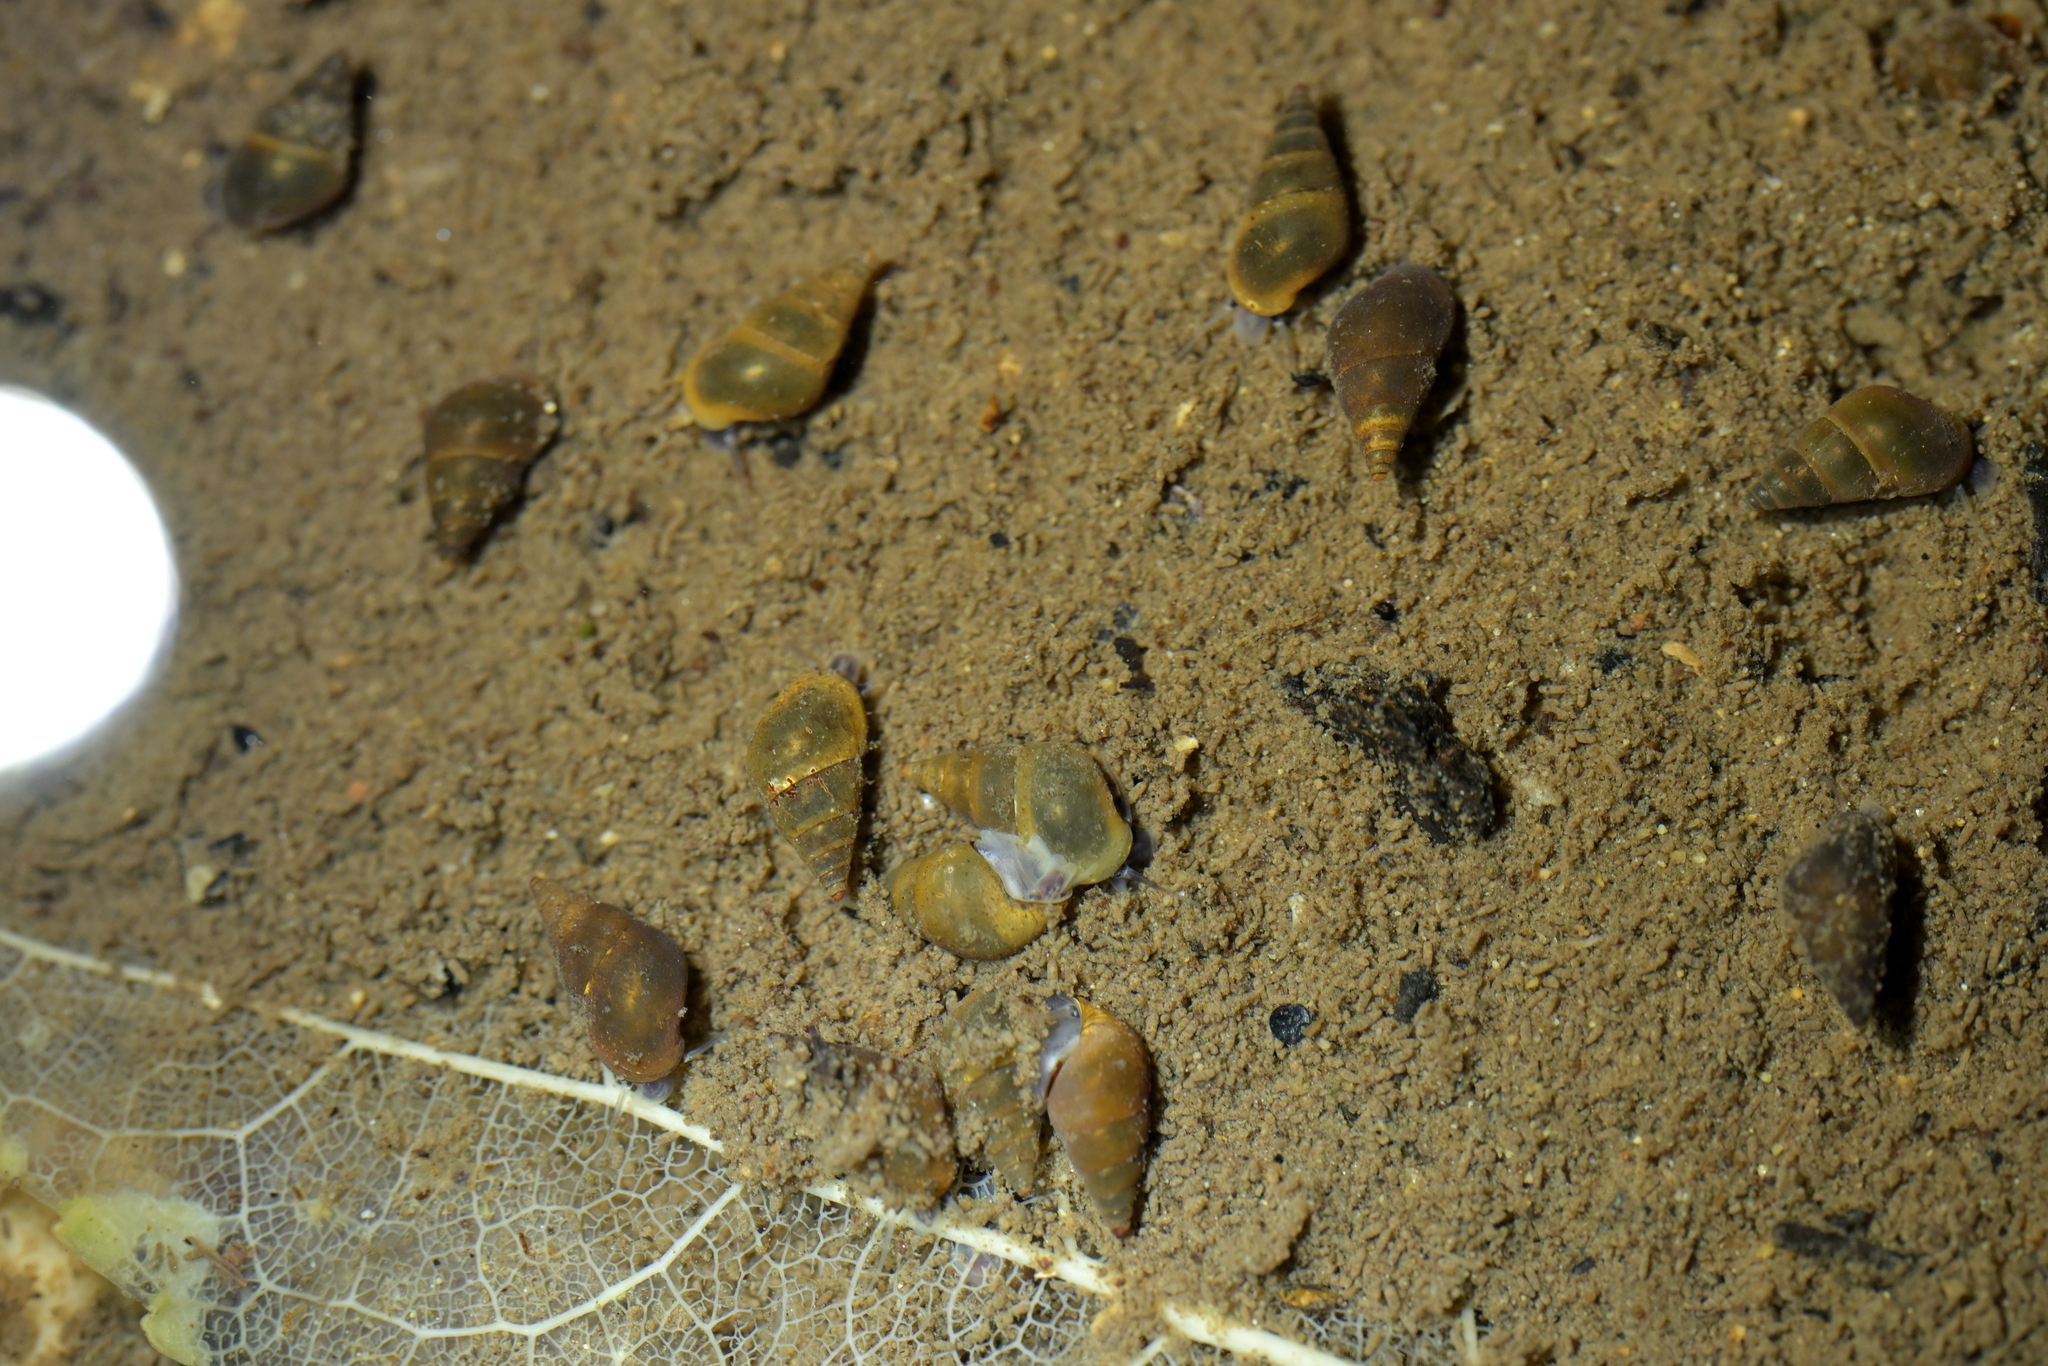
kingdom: Animalia
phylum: Mollusca
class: Gastropoda
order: Littorinimorpha
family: Tateidae
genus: Potamopyrgus
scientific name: Potamopyrgus antipodarum
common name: Jenkins' spire snail
